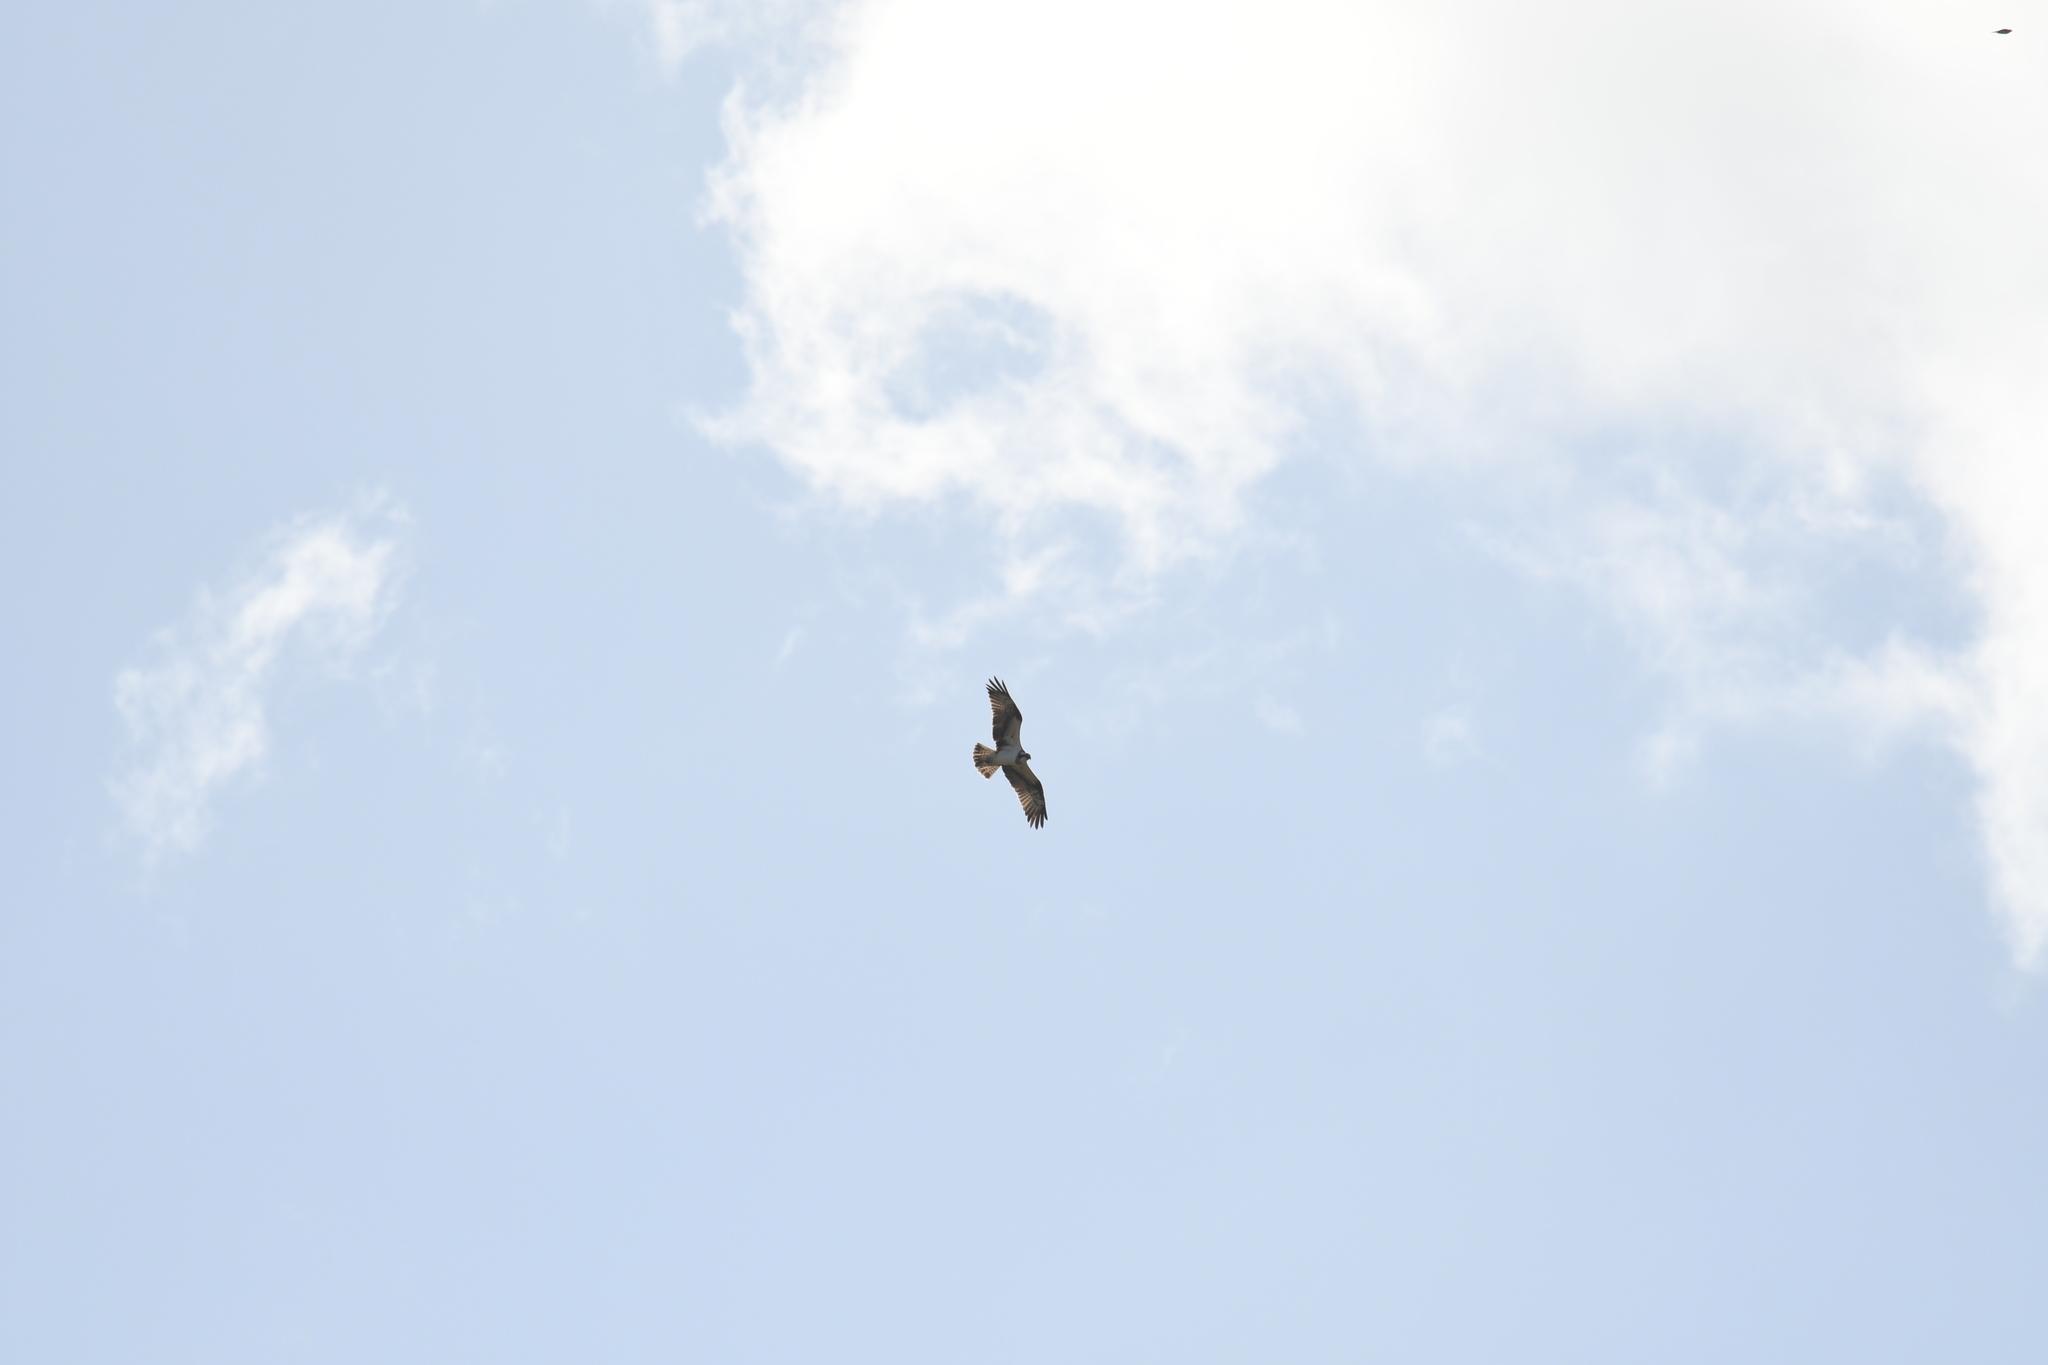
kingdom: Animalia
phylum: Chordata
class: Aves
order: Accipitriformes
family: Pandionidae
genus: Pandion
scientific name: Pandion haliaetus
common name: Osprey
